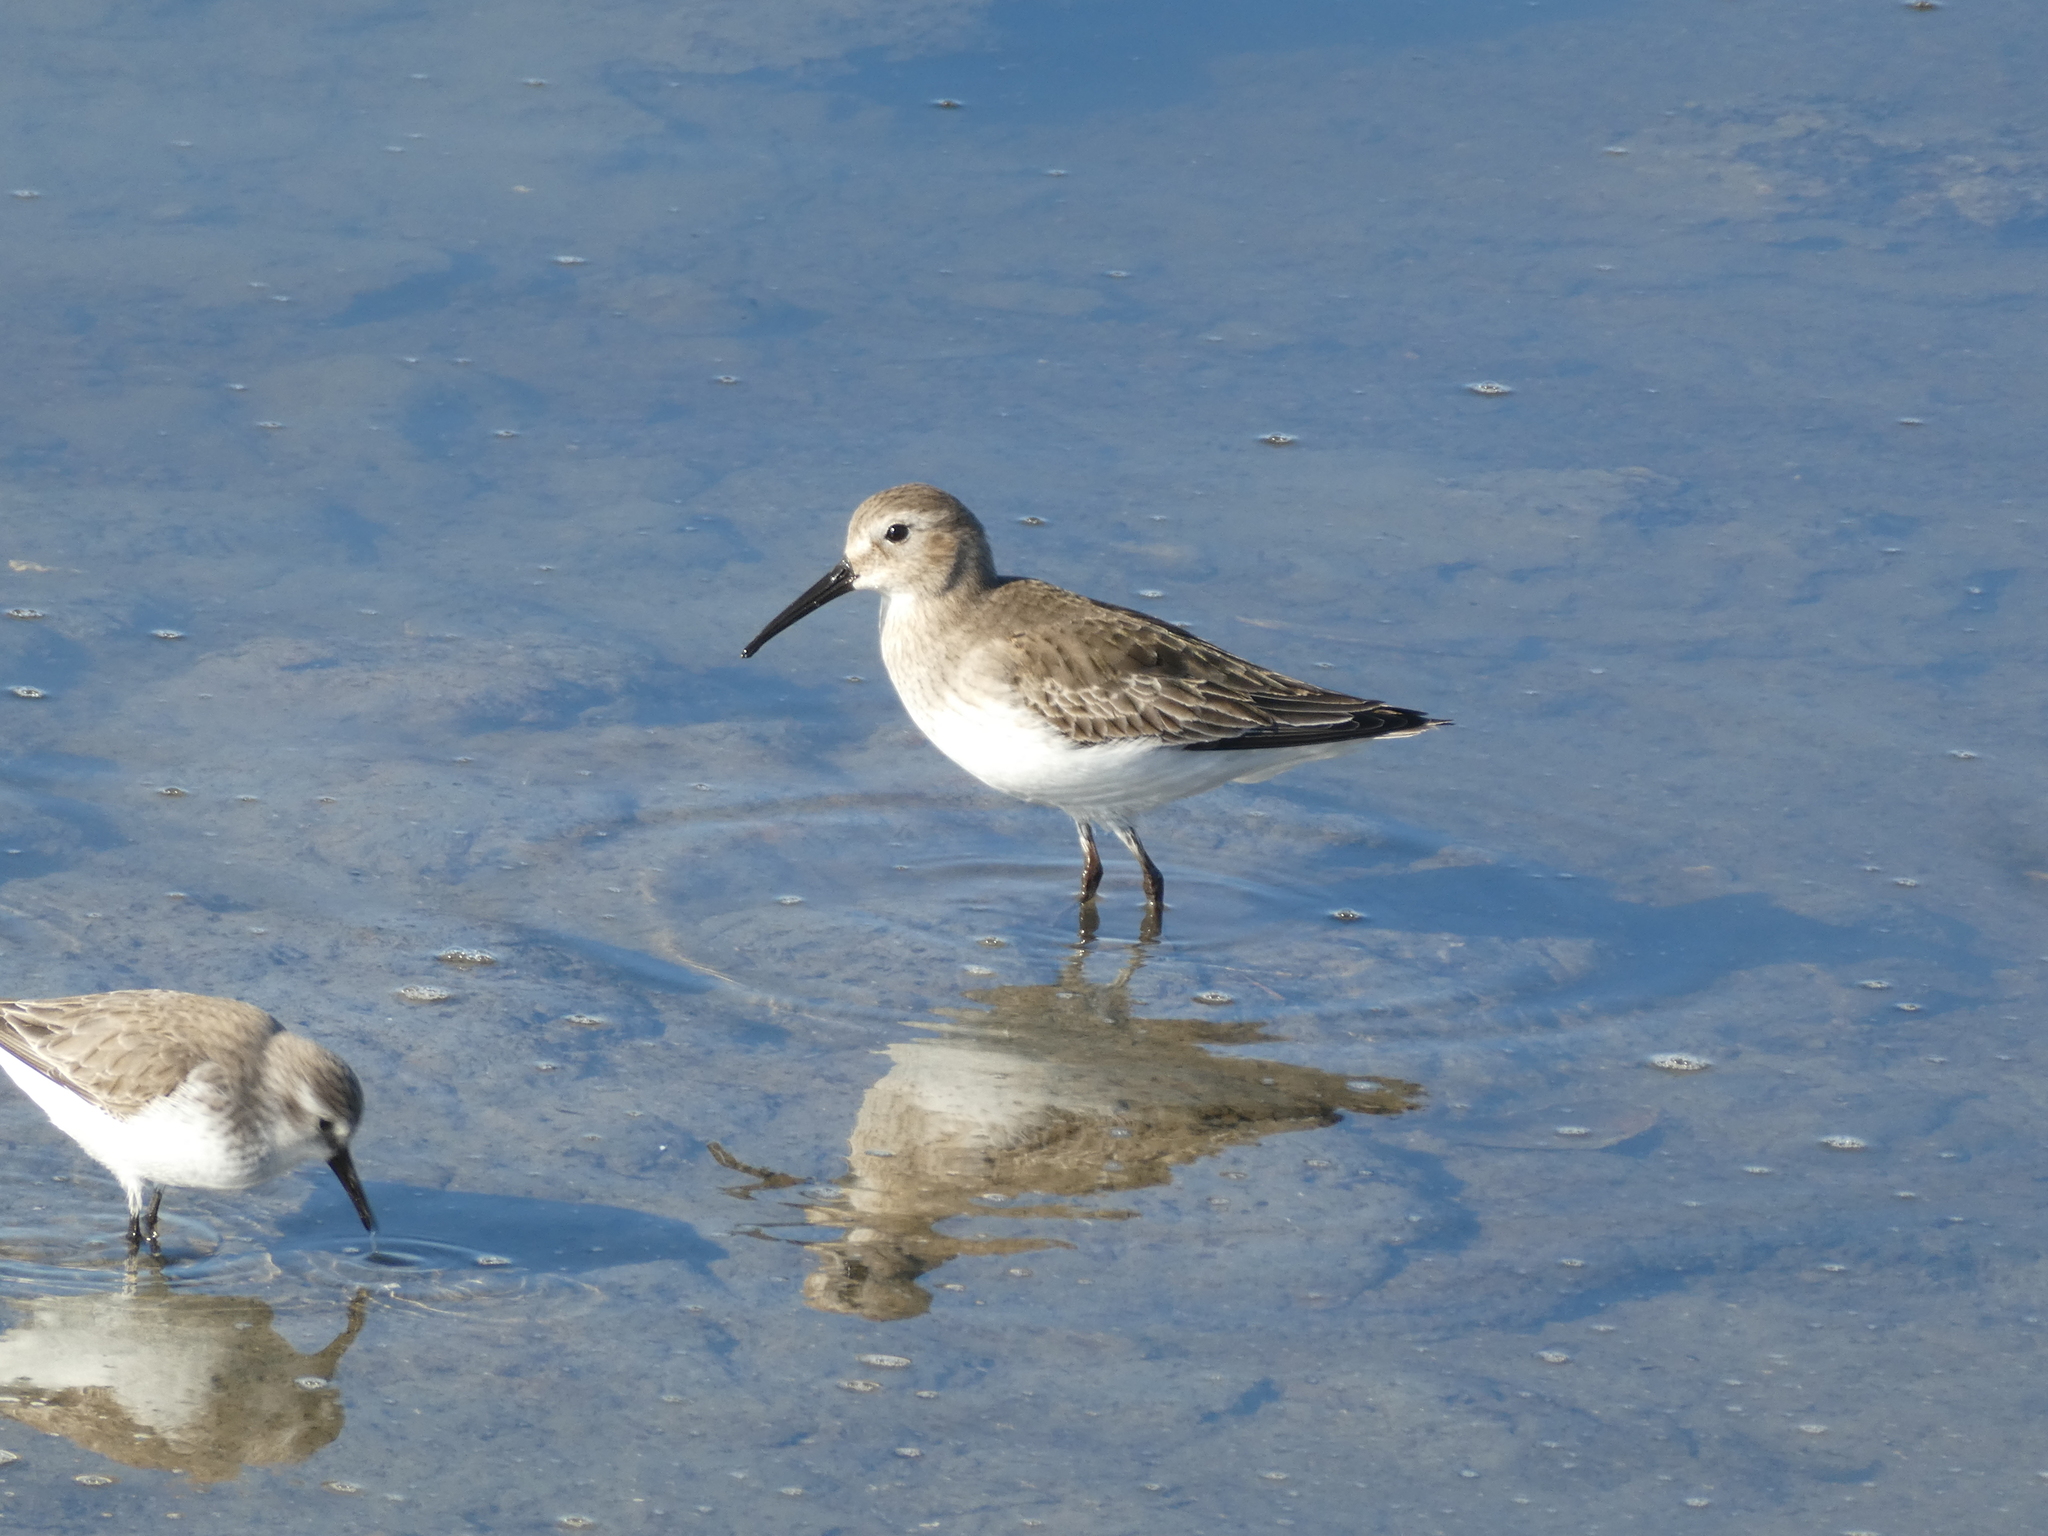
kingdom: Animalia
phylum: Chordata
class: Aves
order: Charadriiformes
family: Scolopacidae
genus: Calidris
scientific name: Calidris alpina
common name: Dunlin
